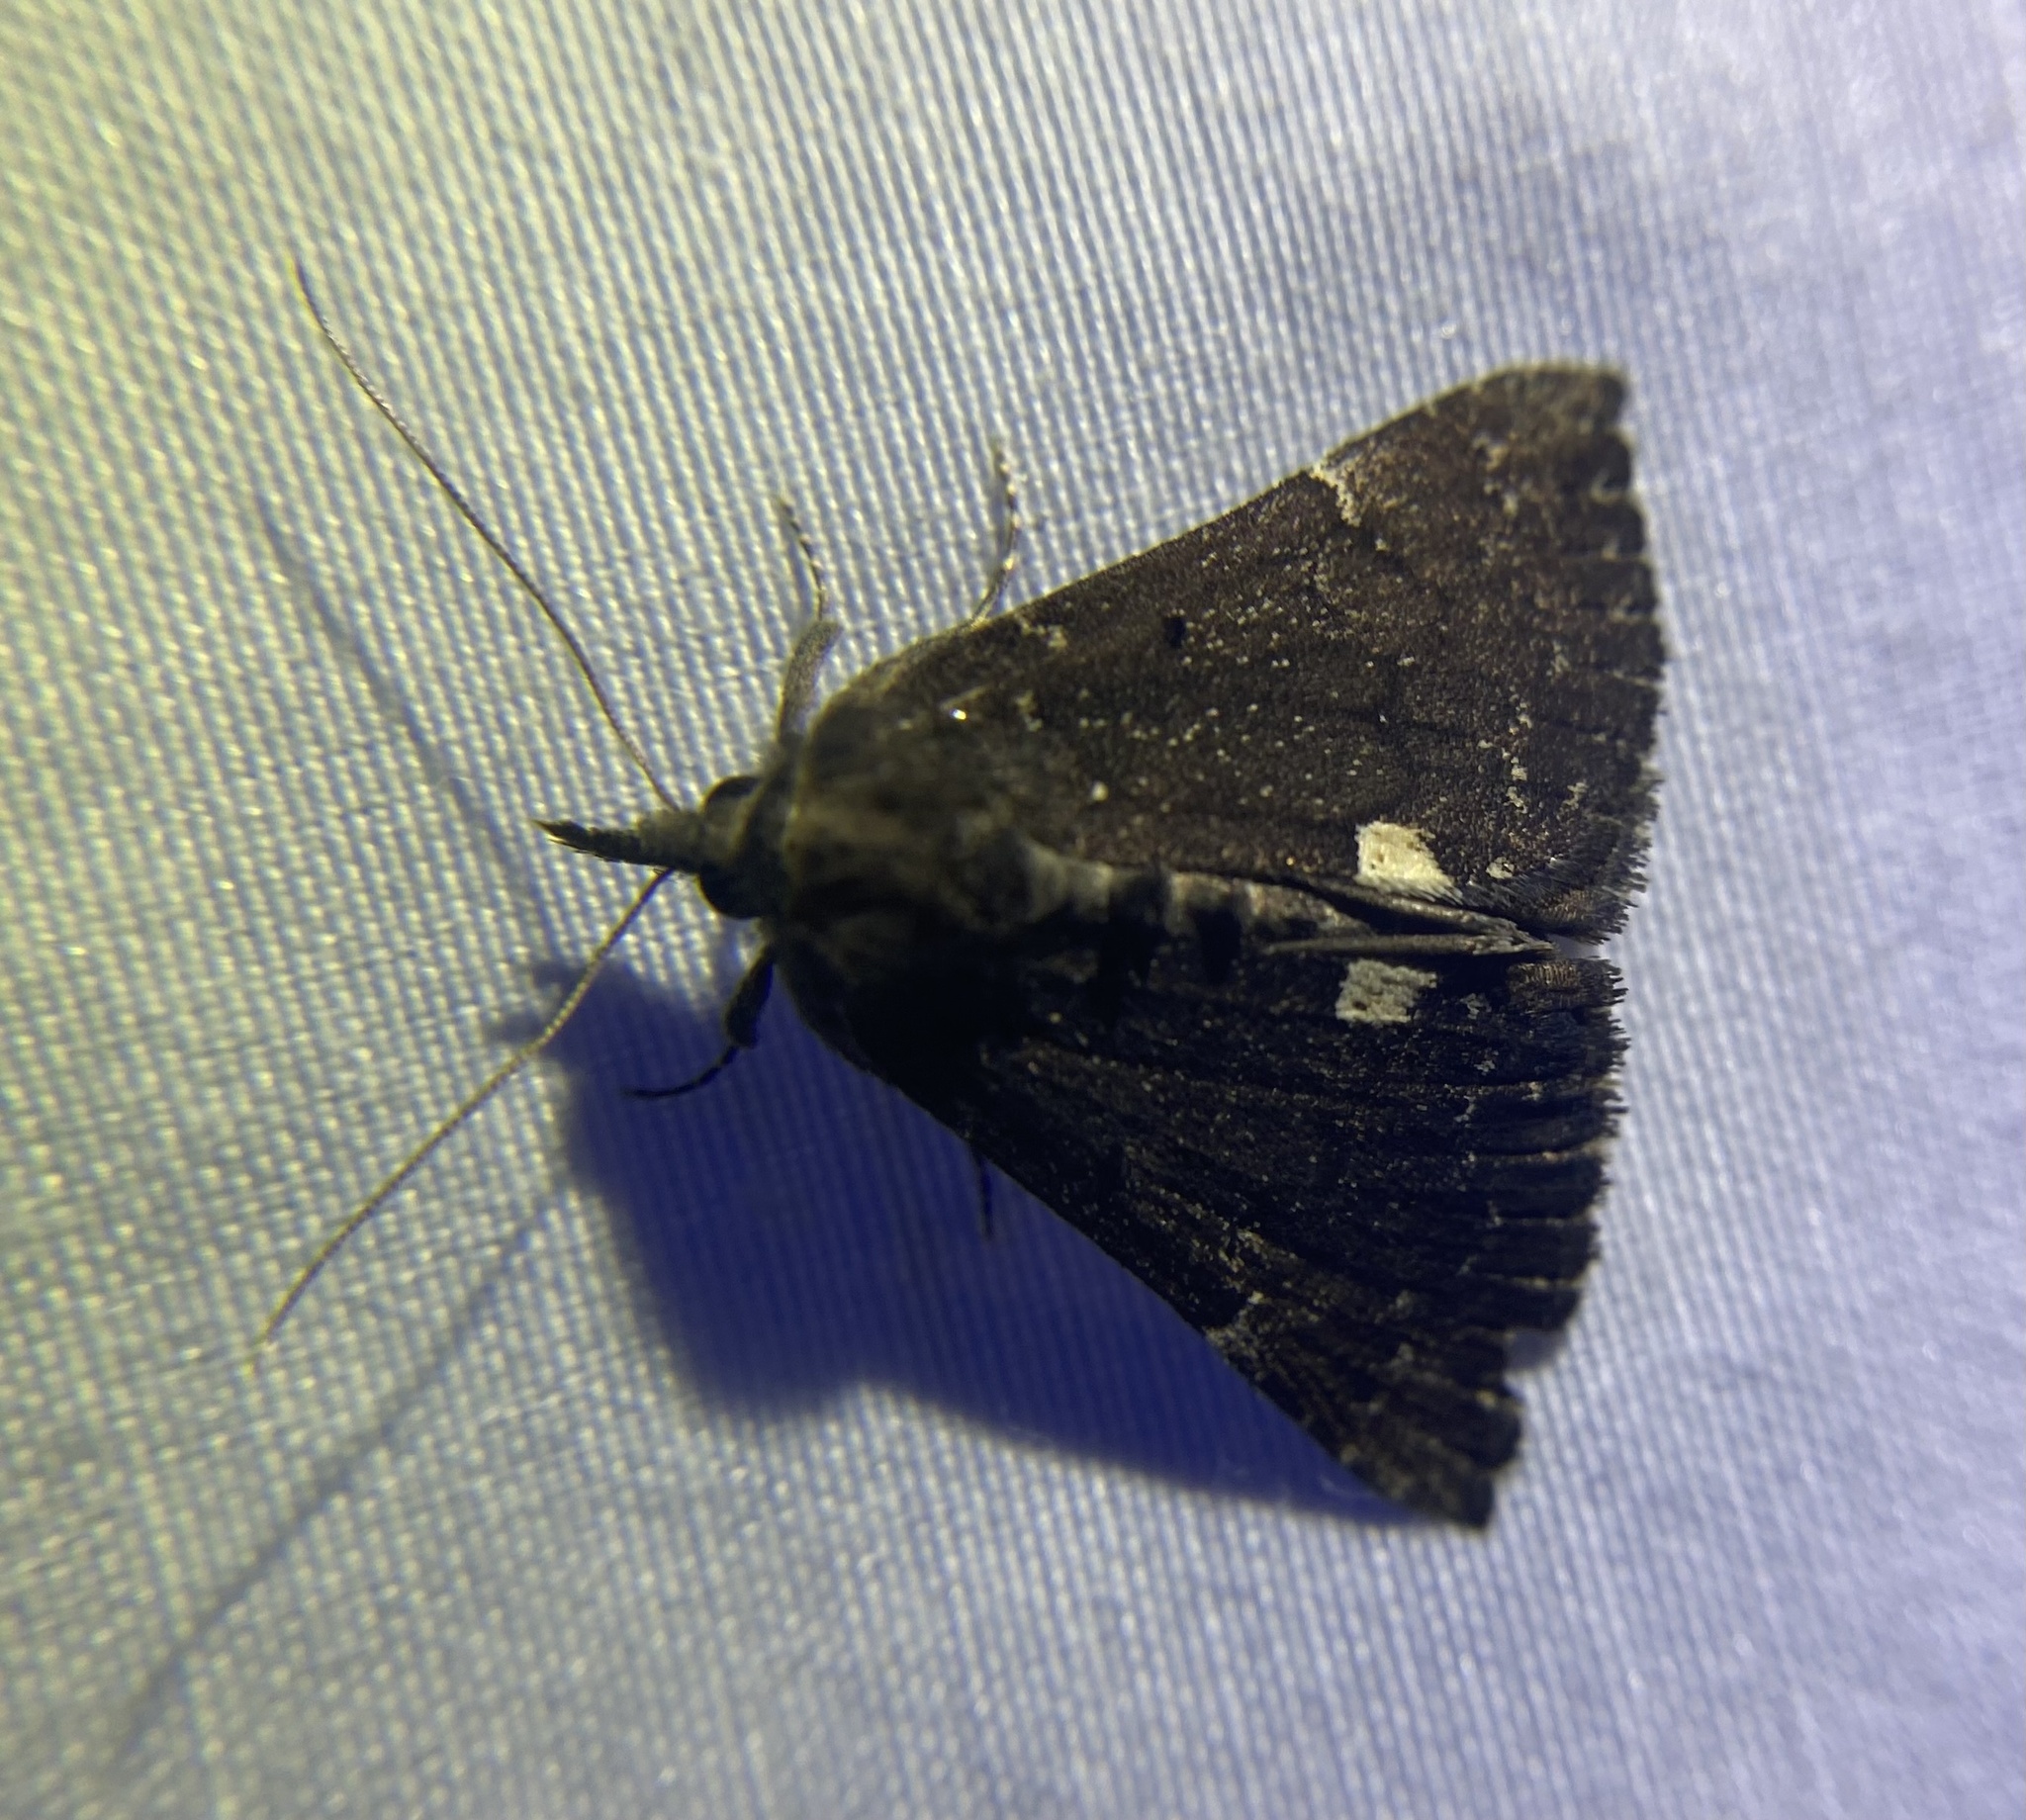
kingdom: Animalia
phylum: Arthropoda
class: Insecta
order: Lepidoptera
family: Erebidae
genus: Hypena
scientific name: Hypena bijugalis
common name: Dimorphic bomolocha moth
